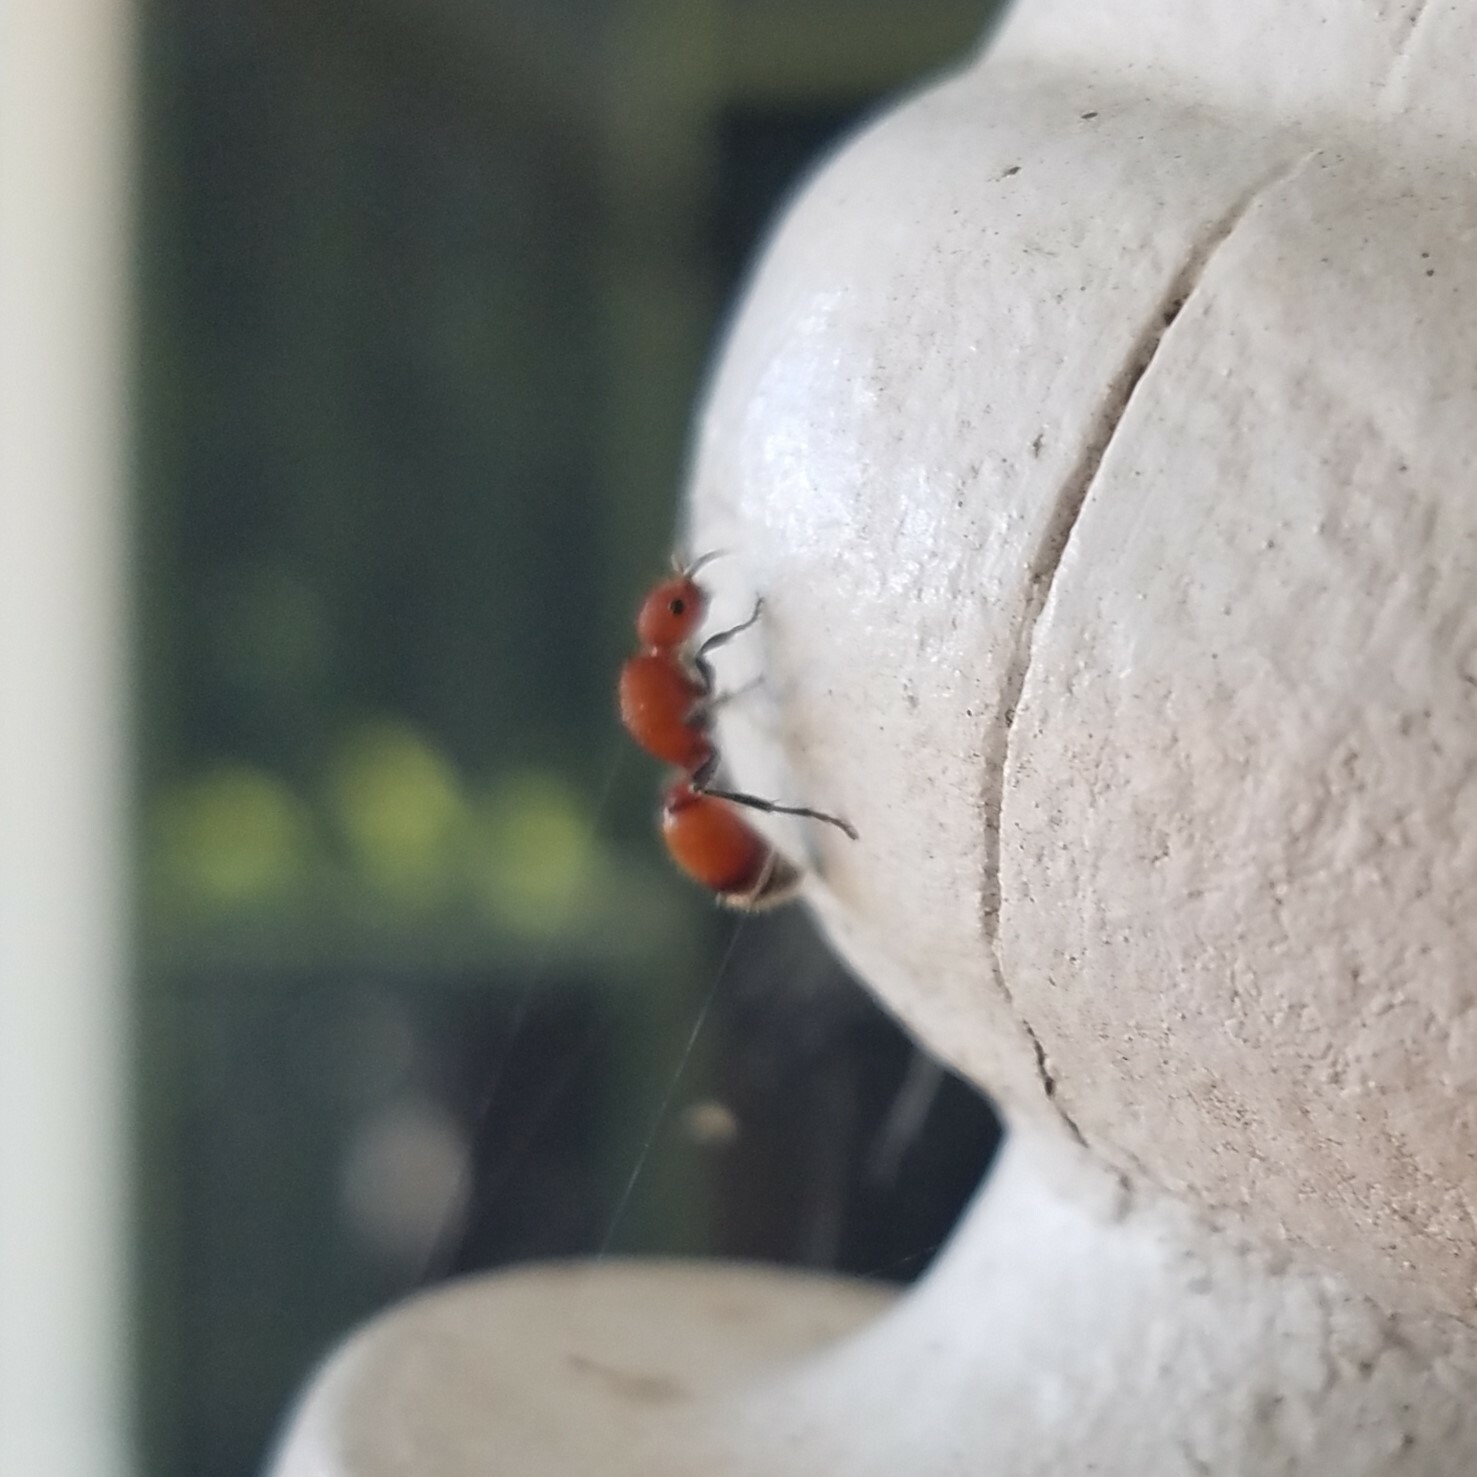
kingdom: Animalia
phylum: Arthropoda
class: Insecta
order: Hymenoptera
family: Mutillidae
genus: Sphaeropthalma
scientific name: Sphaeropthalma
